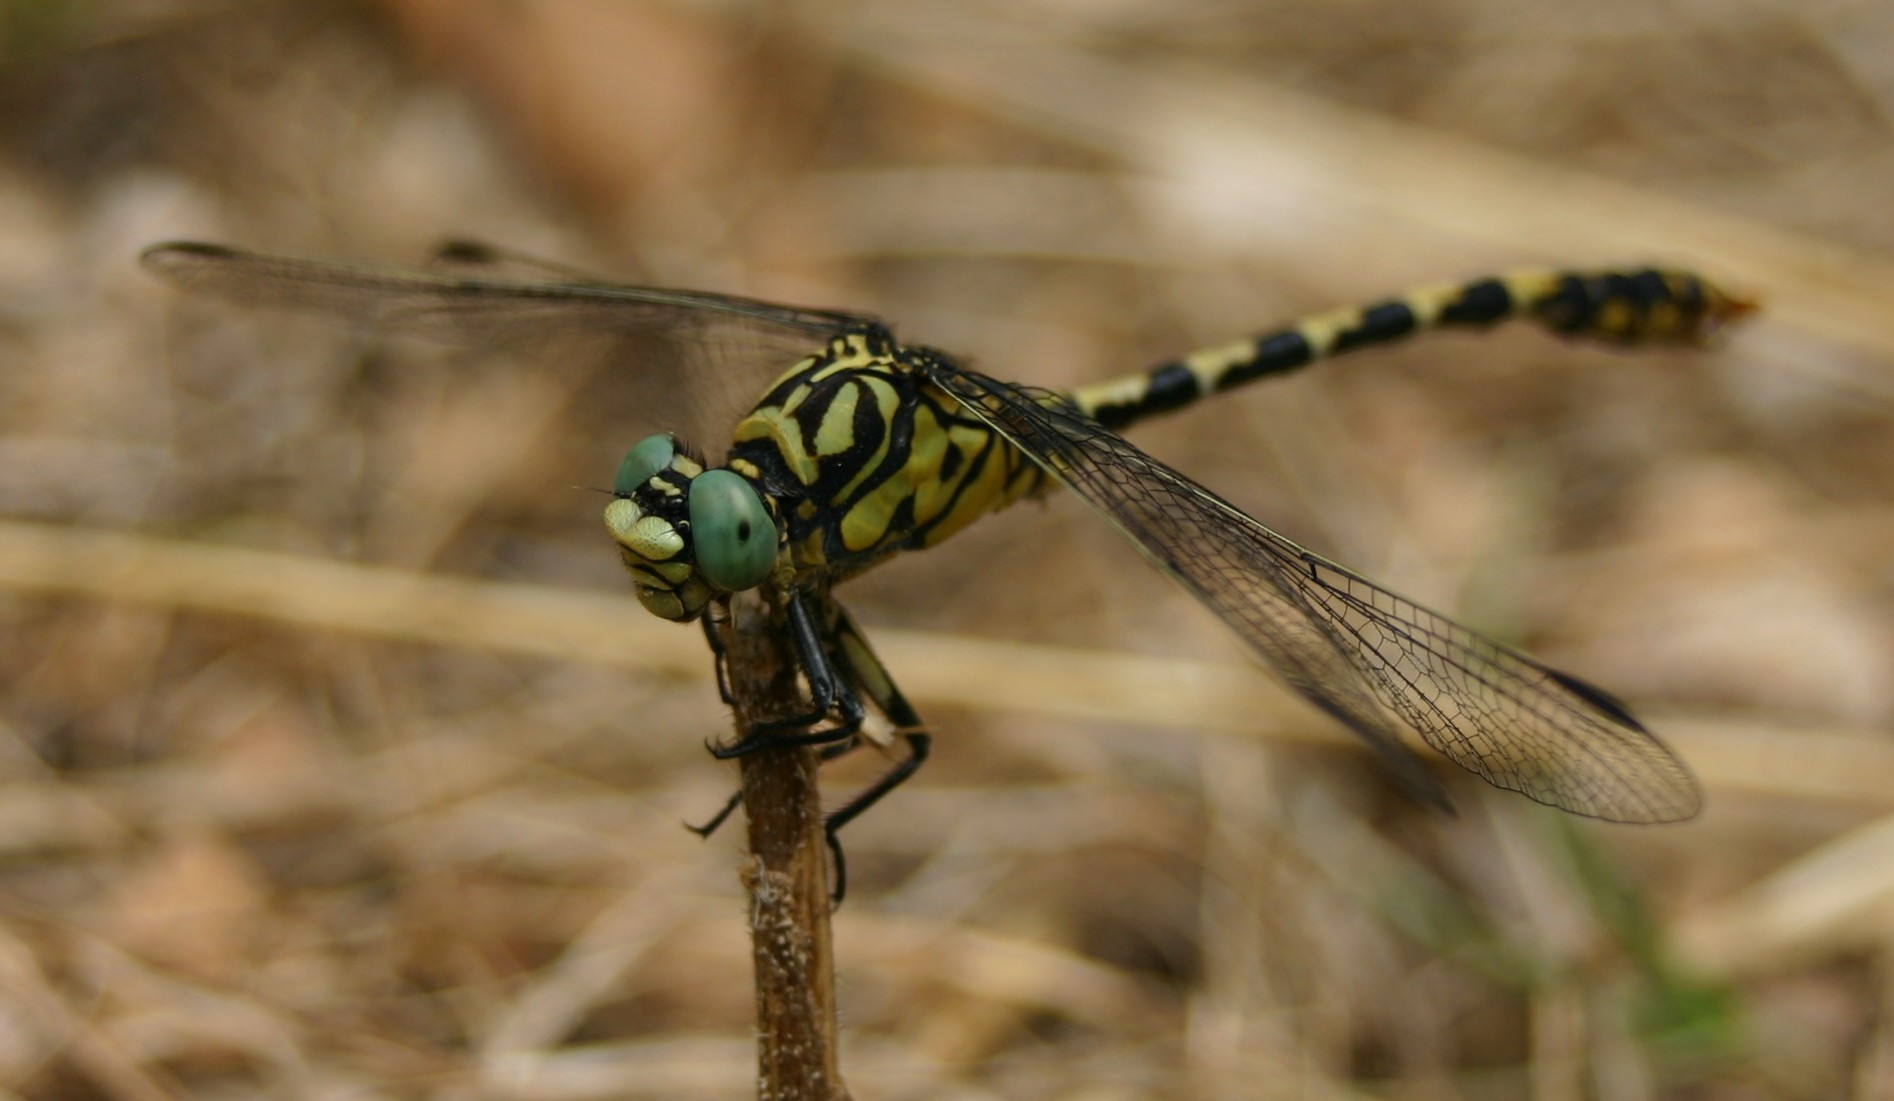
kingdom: Animalia
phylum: Arthropoda
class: Insecta
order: Odonata
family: Gomphidae
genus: Onychogomphus
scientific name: Onychogomphus forcipatus
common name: Small pincertail
